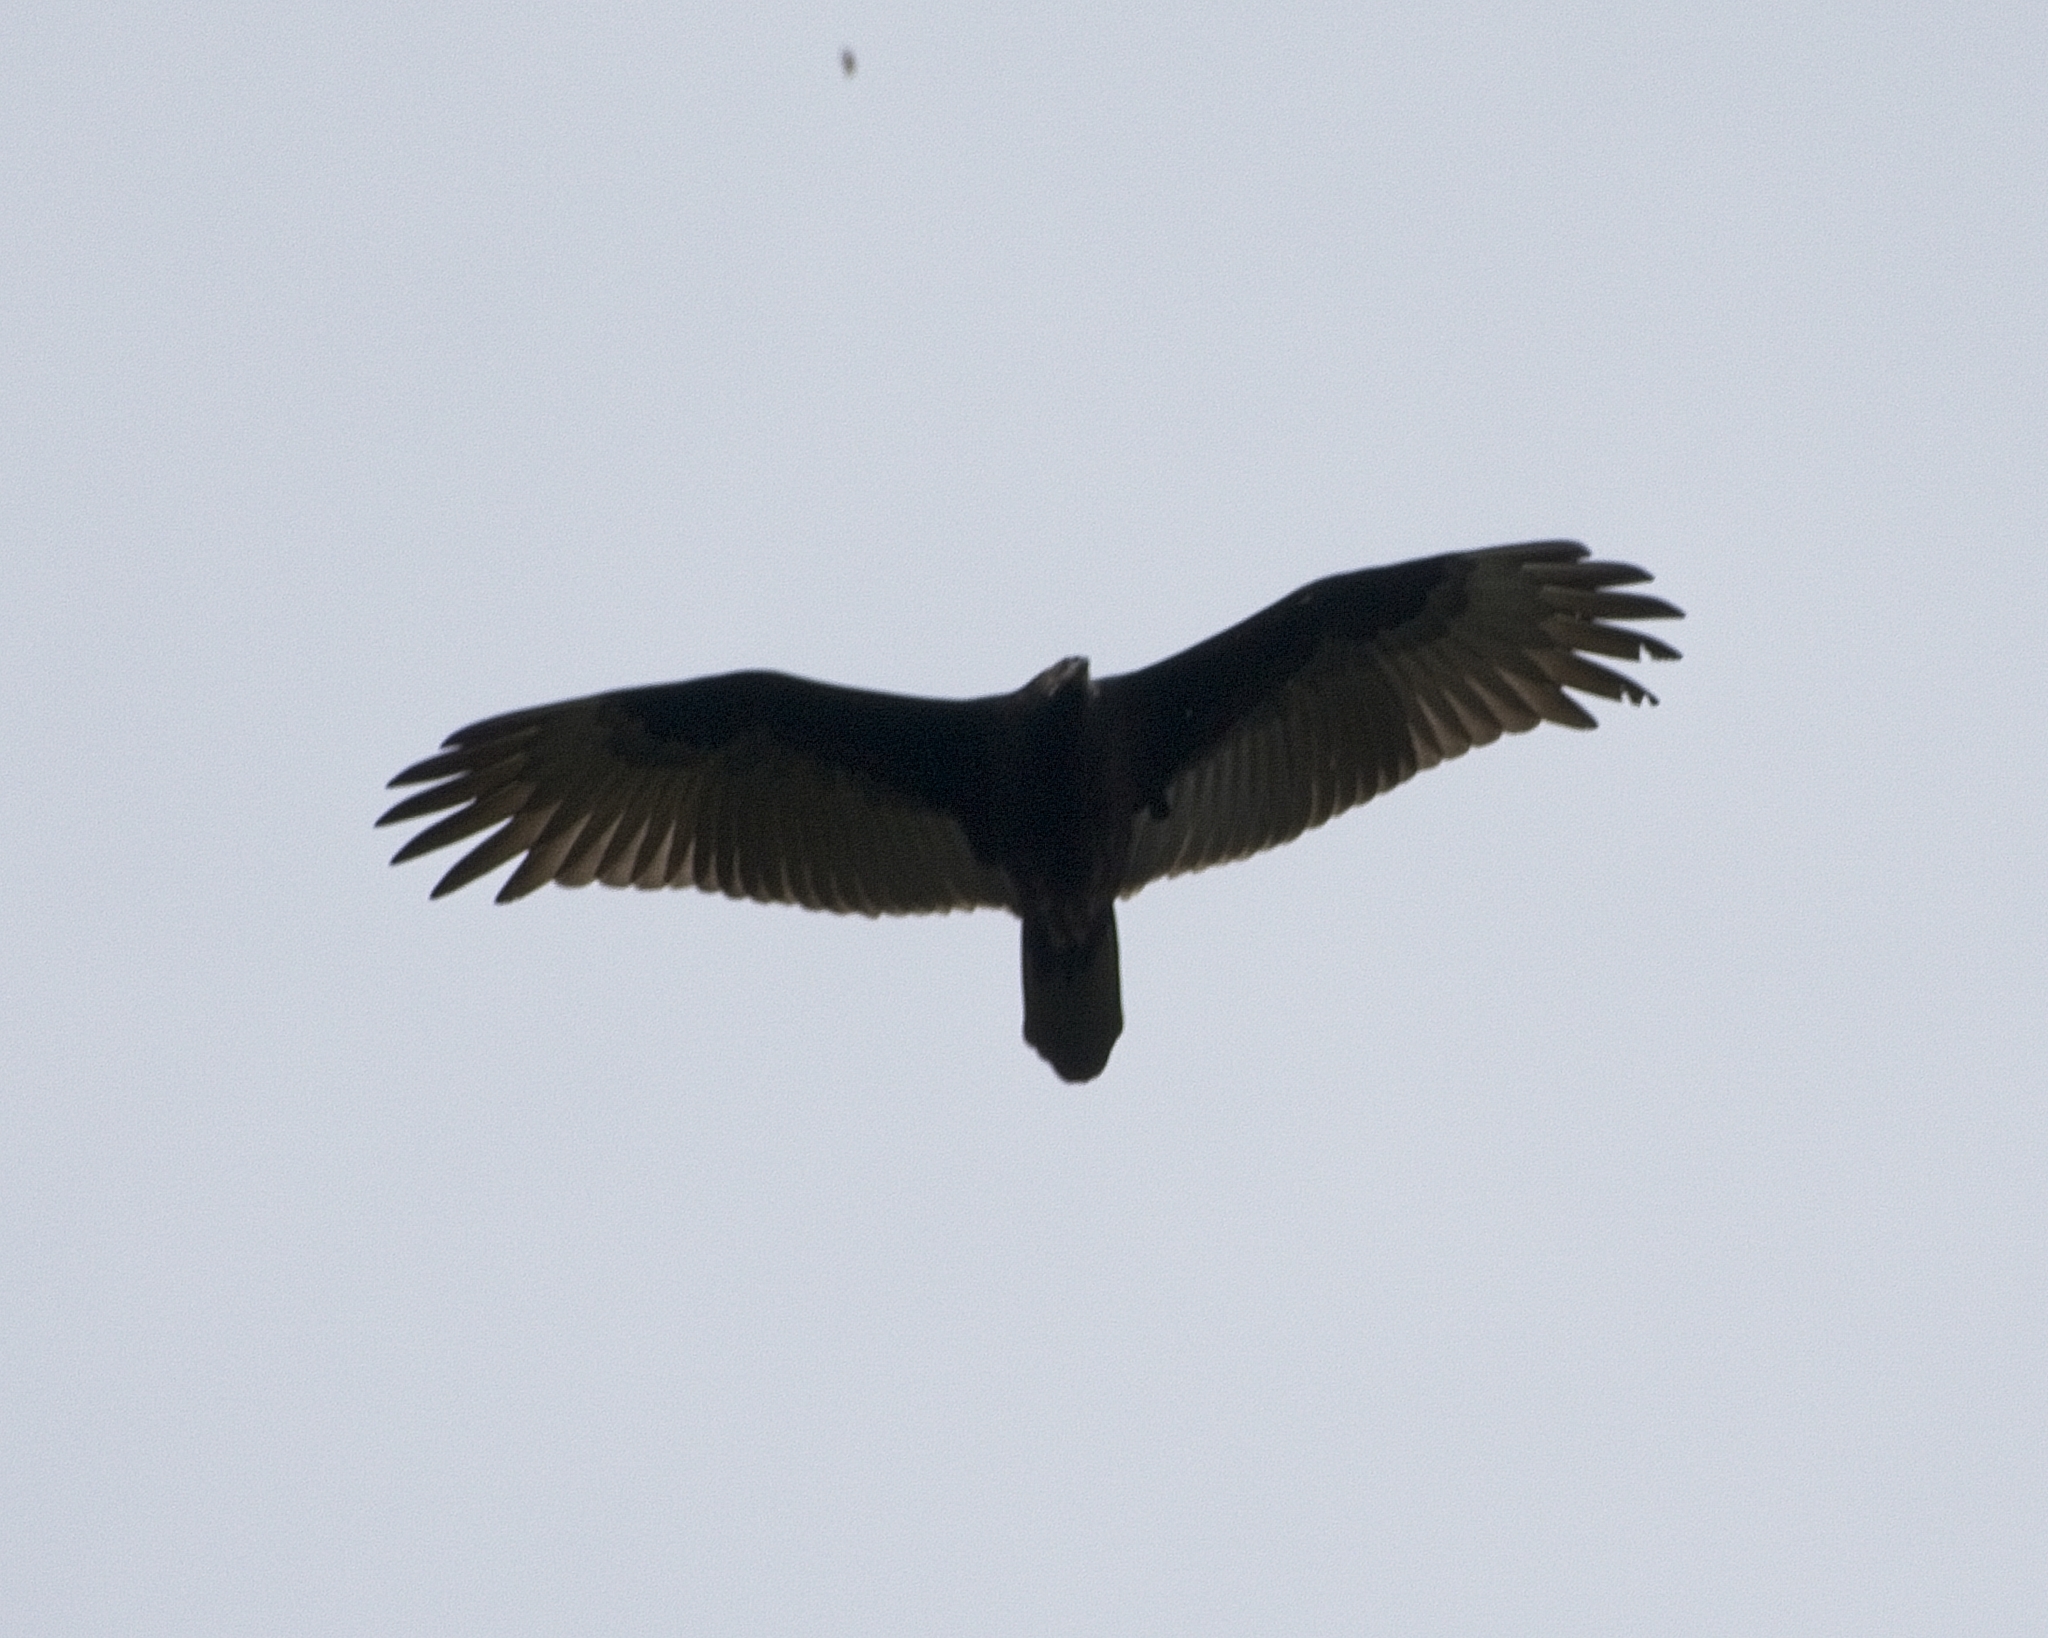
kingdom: Animalia
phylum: Chordata
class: Aves
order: Accipitriformes
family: Cathartidae
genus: Cathartes
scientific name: Cathartes aura
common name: Turkey vulture
